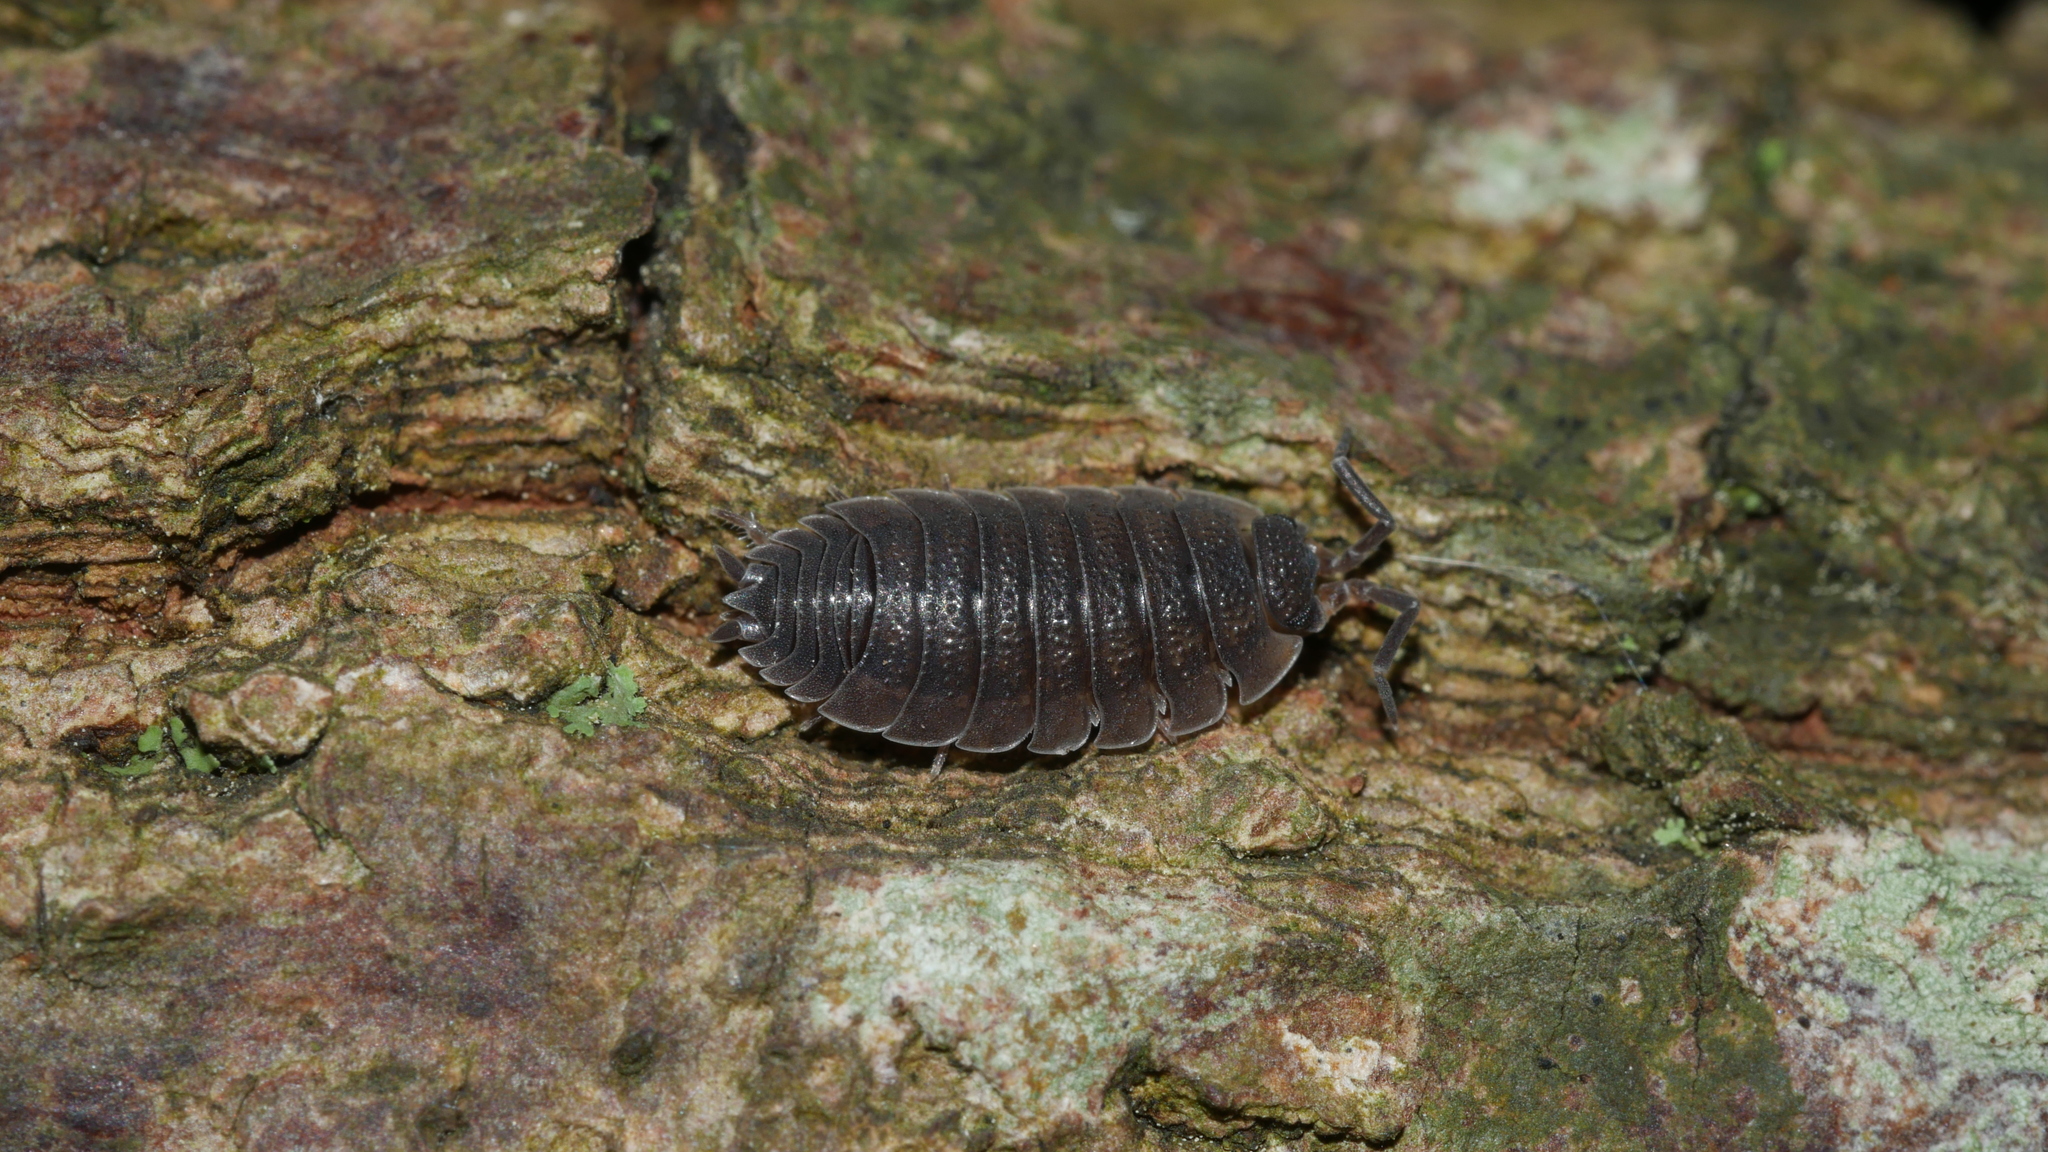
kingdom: Animalia
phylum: Arthropoda
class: Malacostraca
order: Isopoda
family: Porcellionidae
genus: Porcellio
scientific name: Porcellio scaber
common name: Common rough woodlouse
